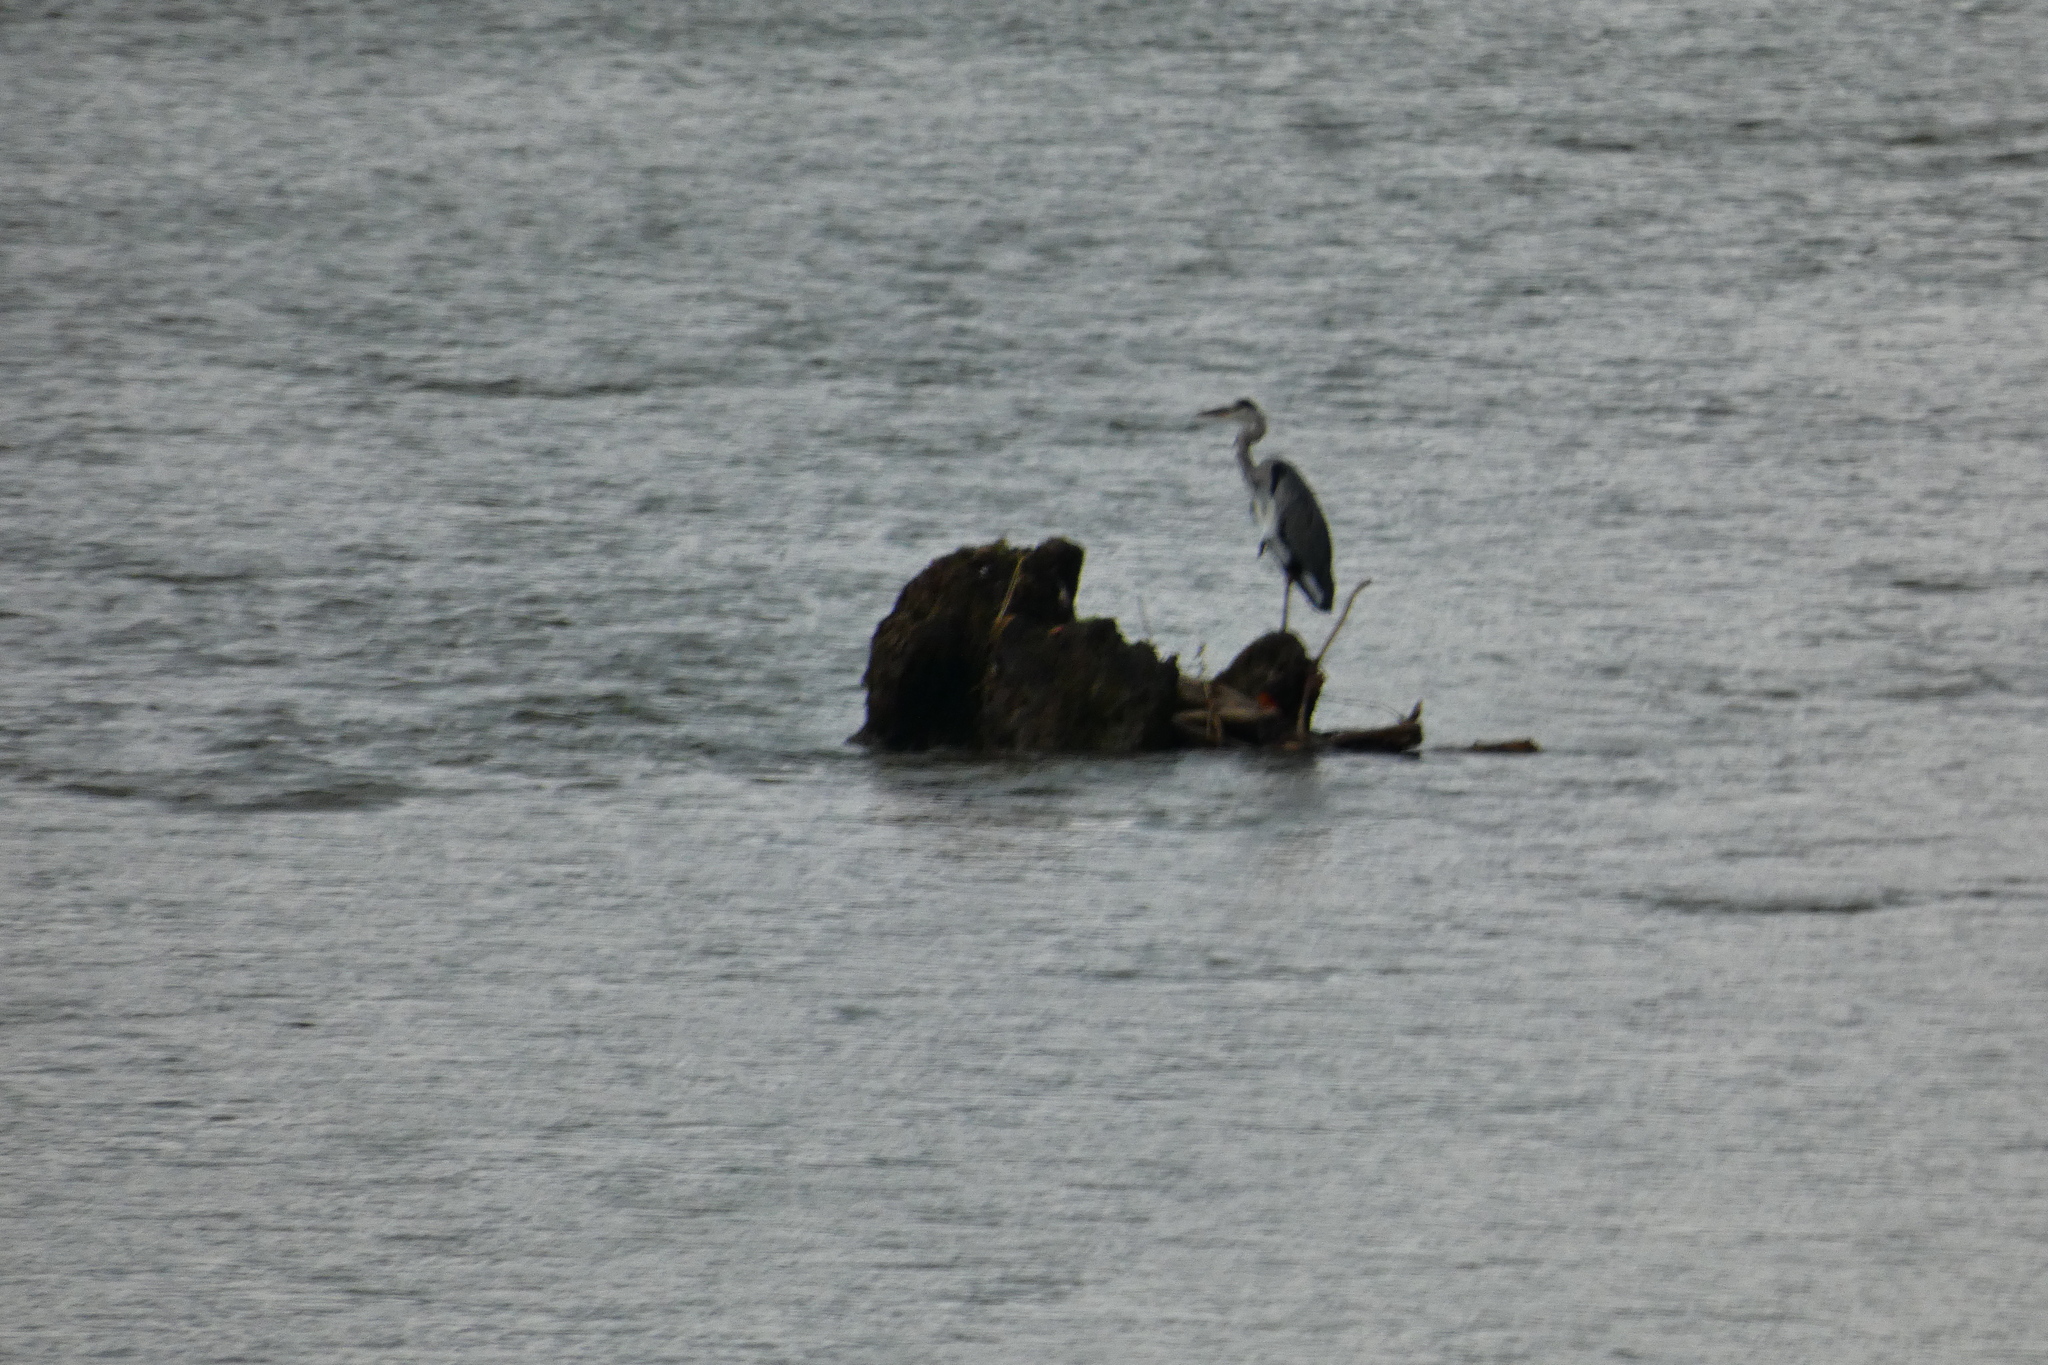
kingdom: Animalia
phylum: Chordata
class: Aves
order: Pelecaniformes
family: Ardeidae
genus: Ardea
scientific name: Ardea cinerea
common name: Grey heron
